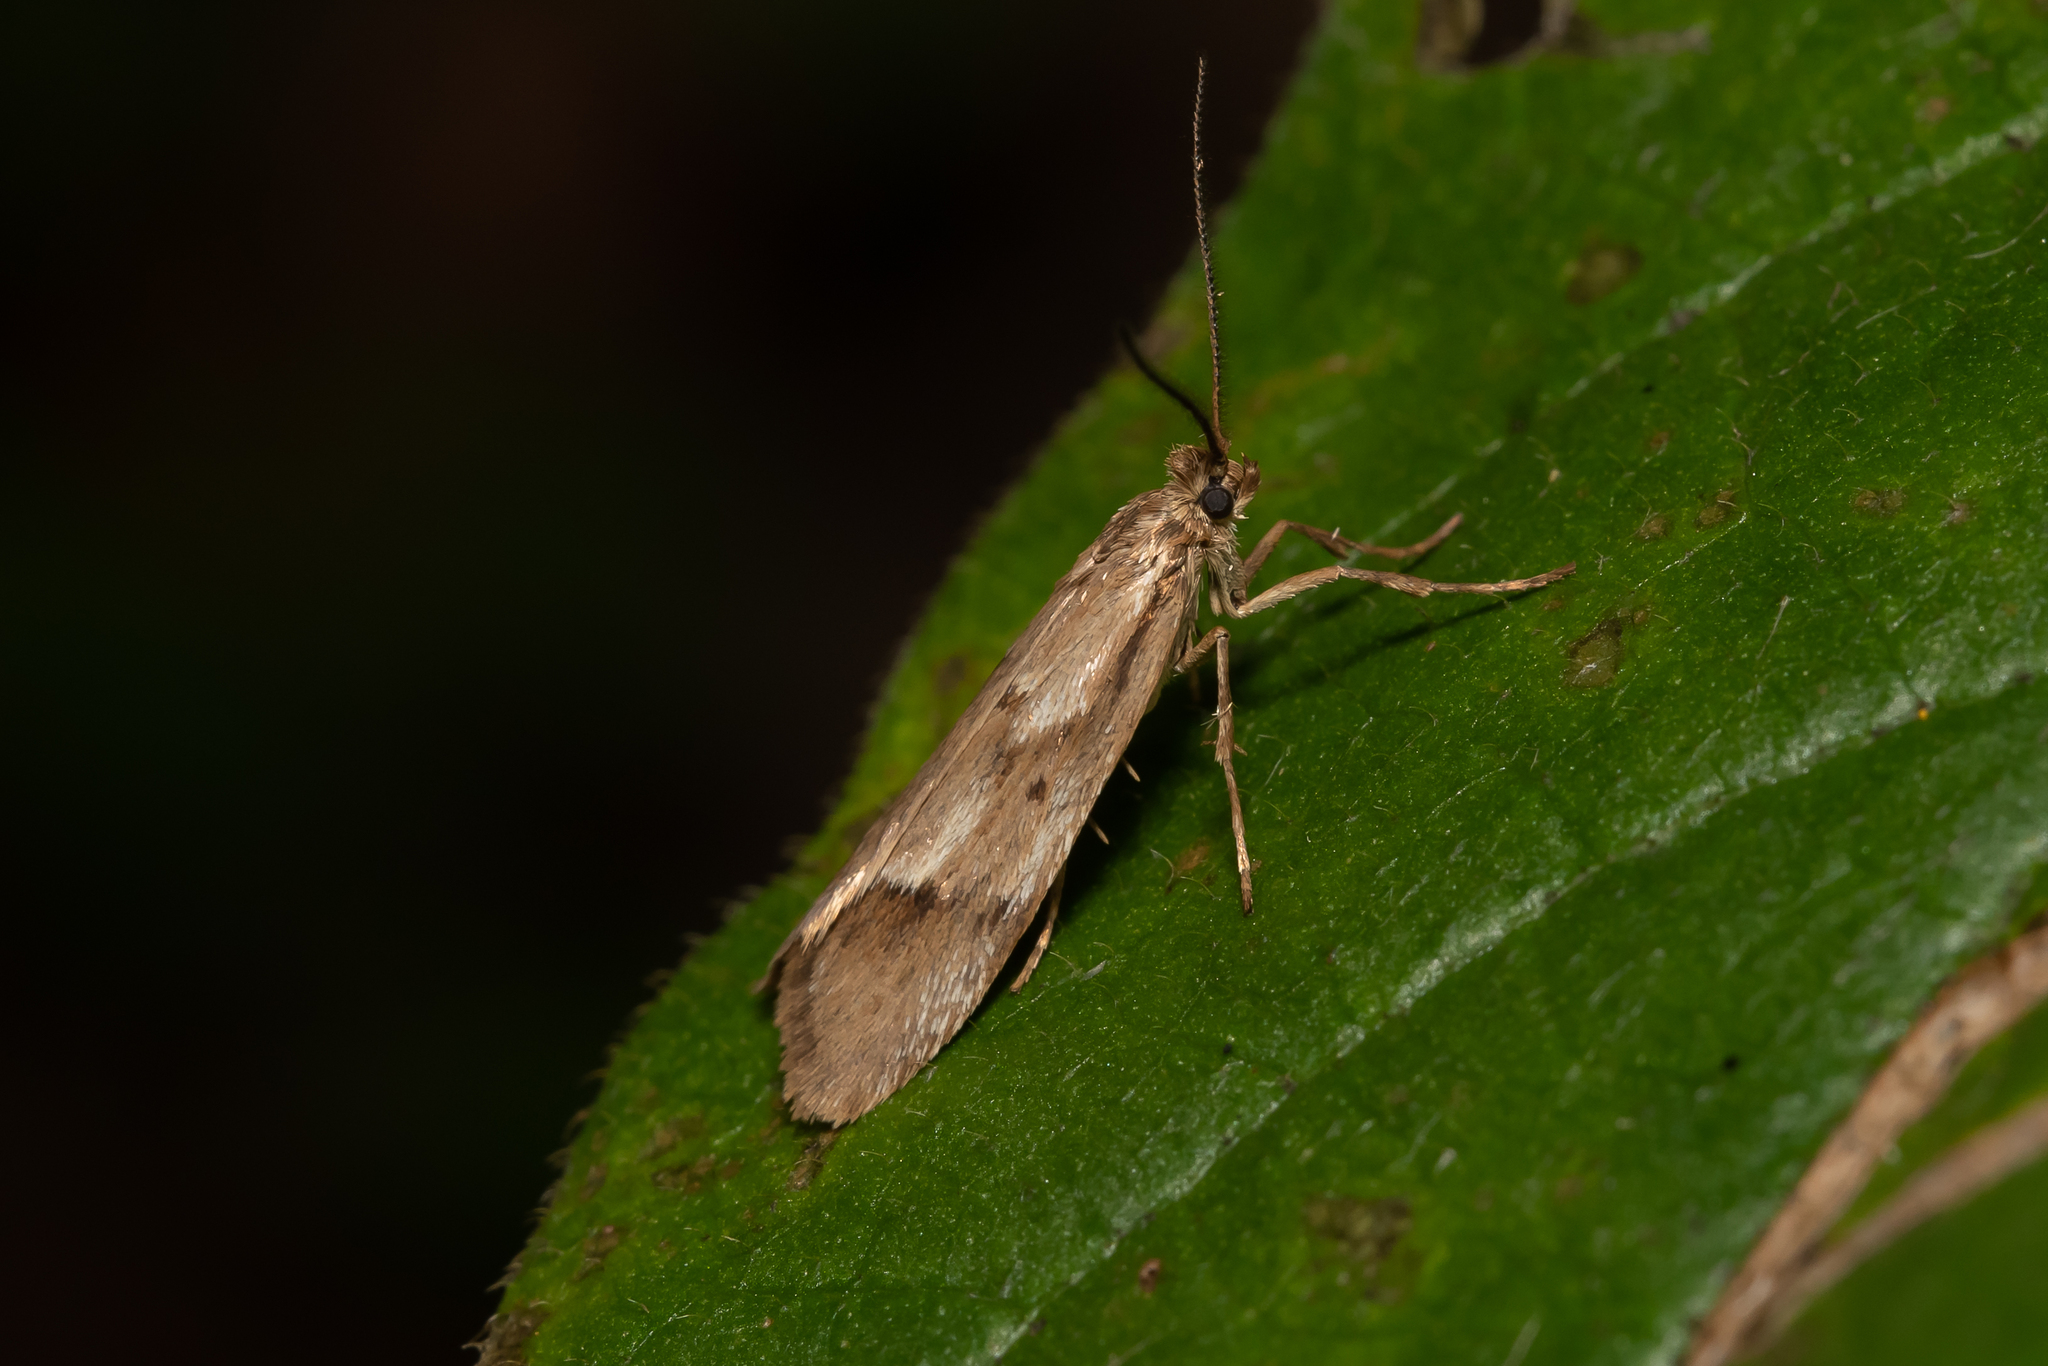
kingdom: Animalia
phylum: Arthropoda
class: Insecta
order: Lepidoptera
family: Lypusidae
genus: Diurnea
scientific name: Diurnea lipsiella
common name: November tubic
